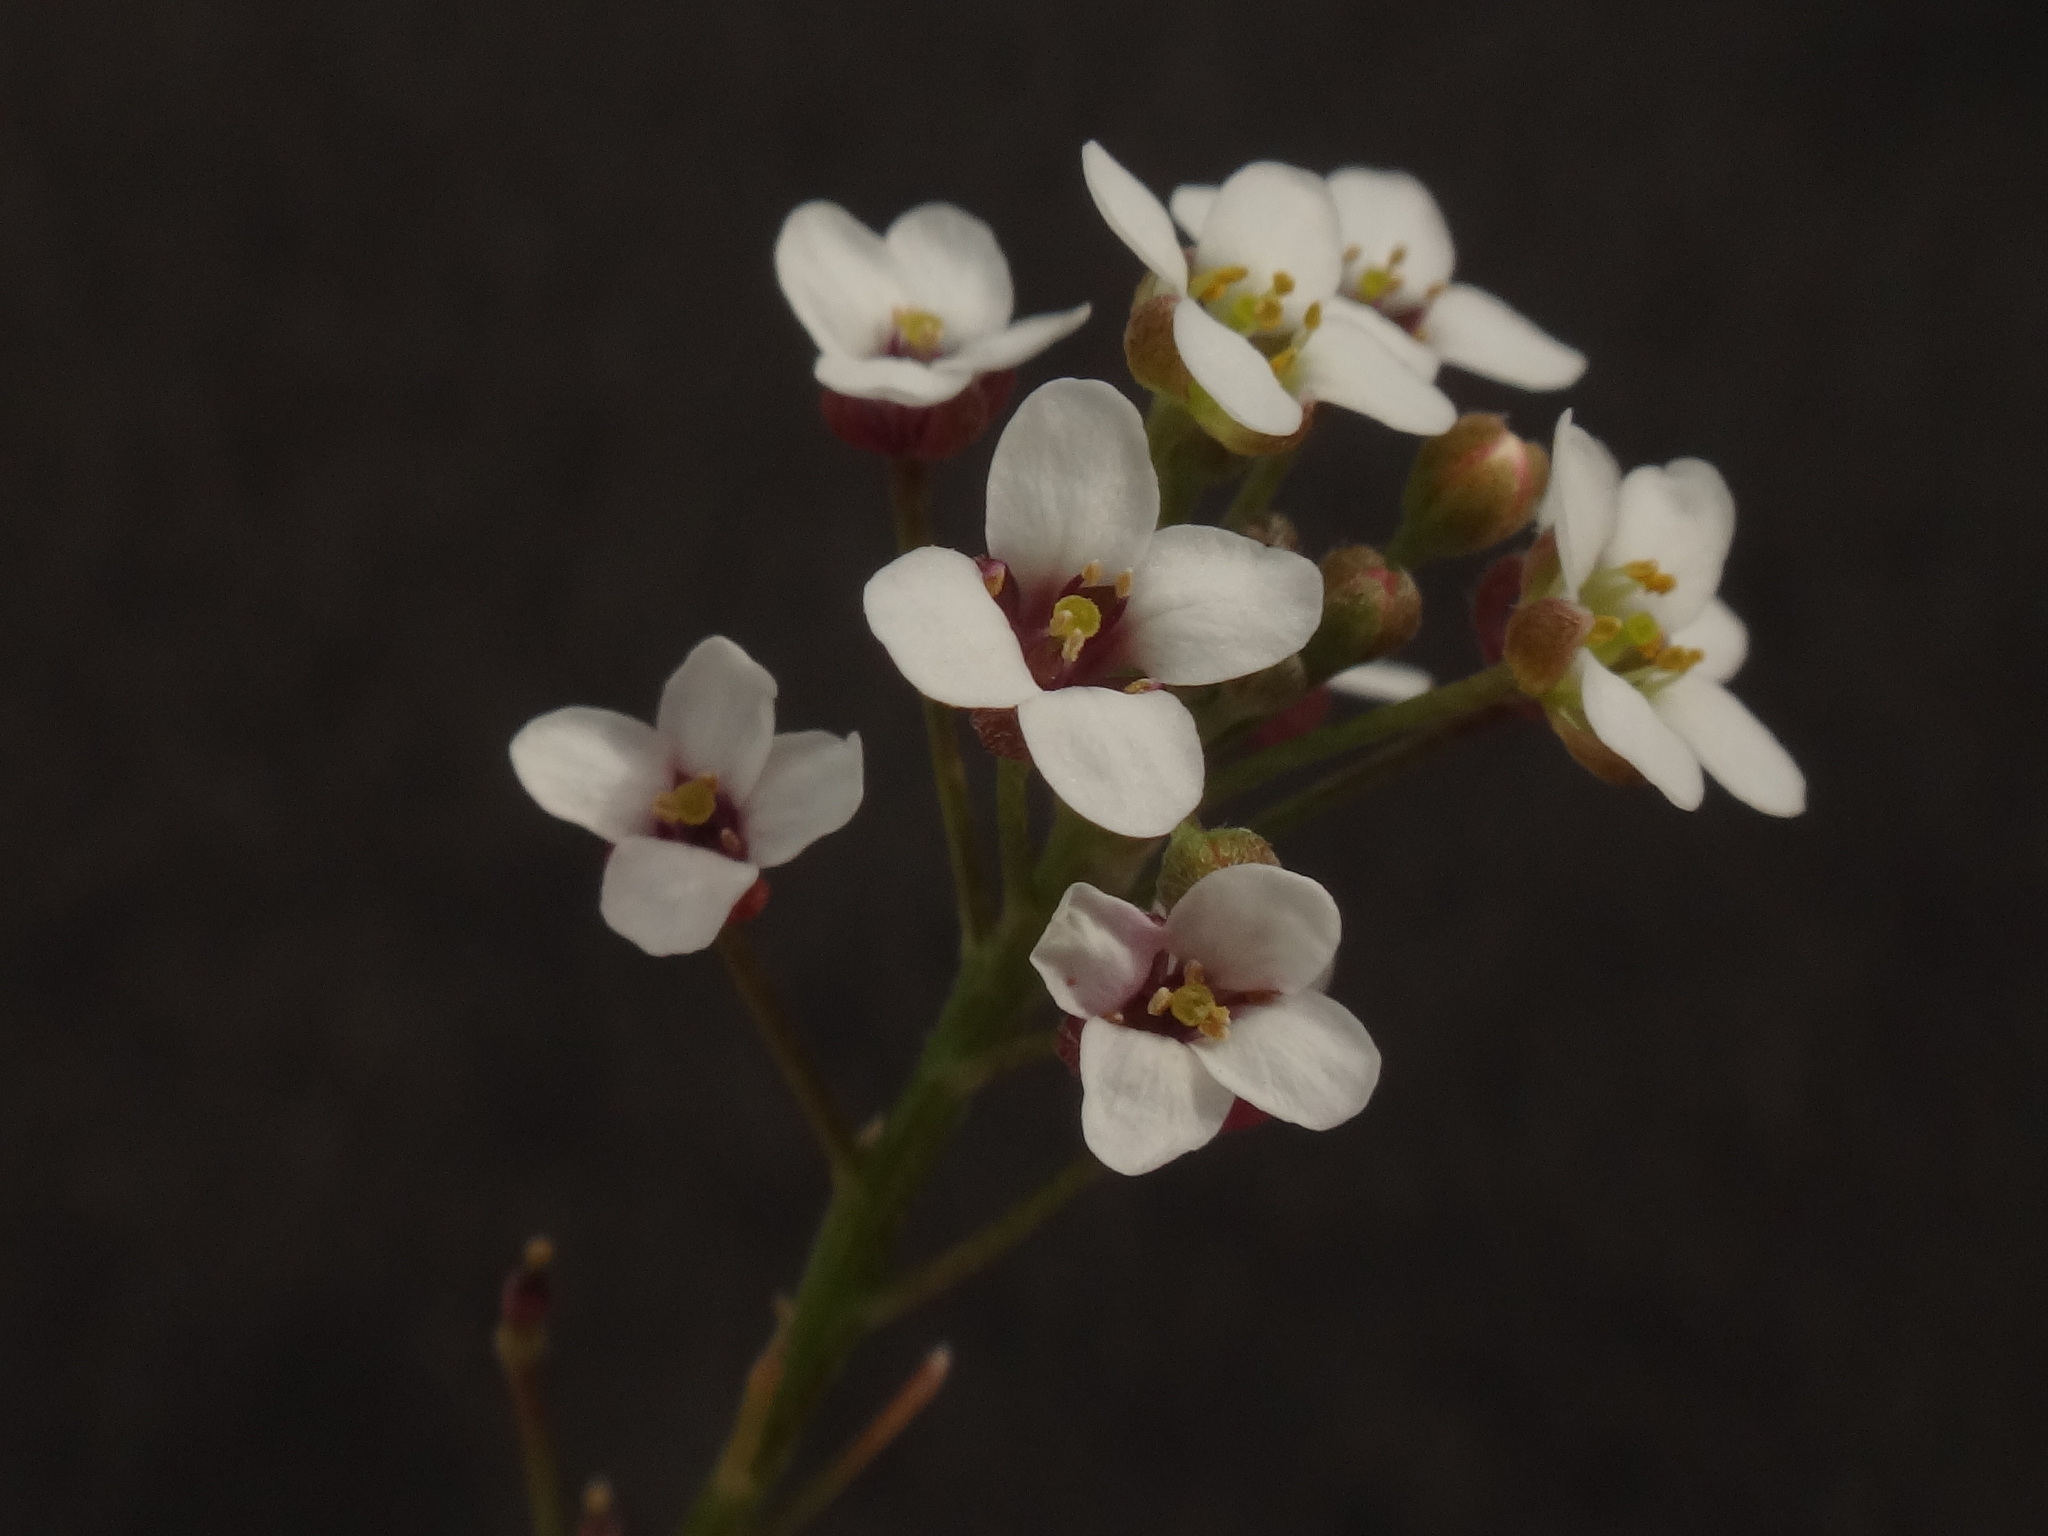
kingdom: Plantae
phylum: Tracheophyta
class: Magnoliopsida
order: Brassicales
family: Brassicaceae
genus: Lobularia
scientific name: Lobularia canariensis
